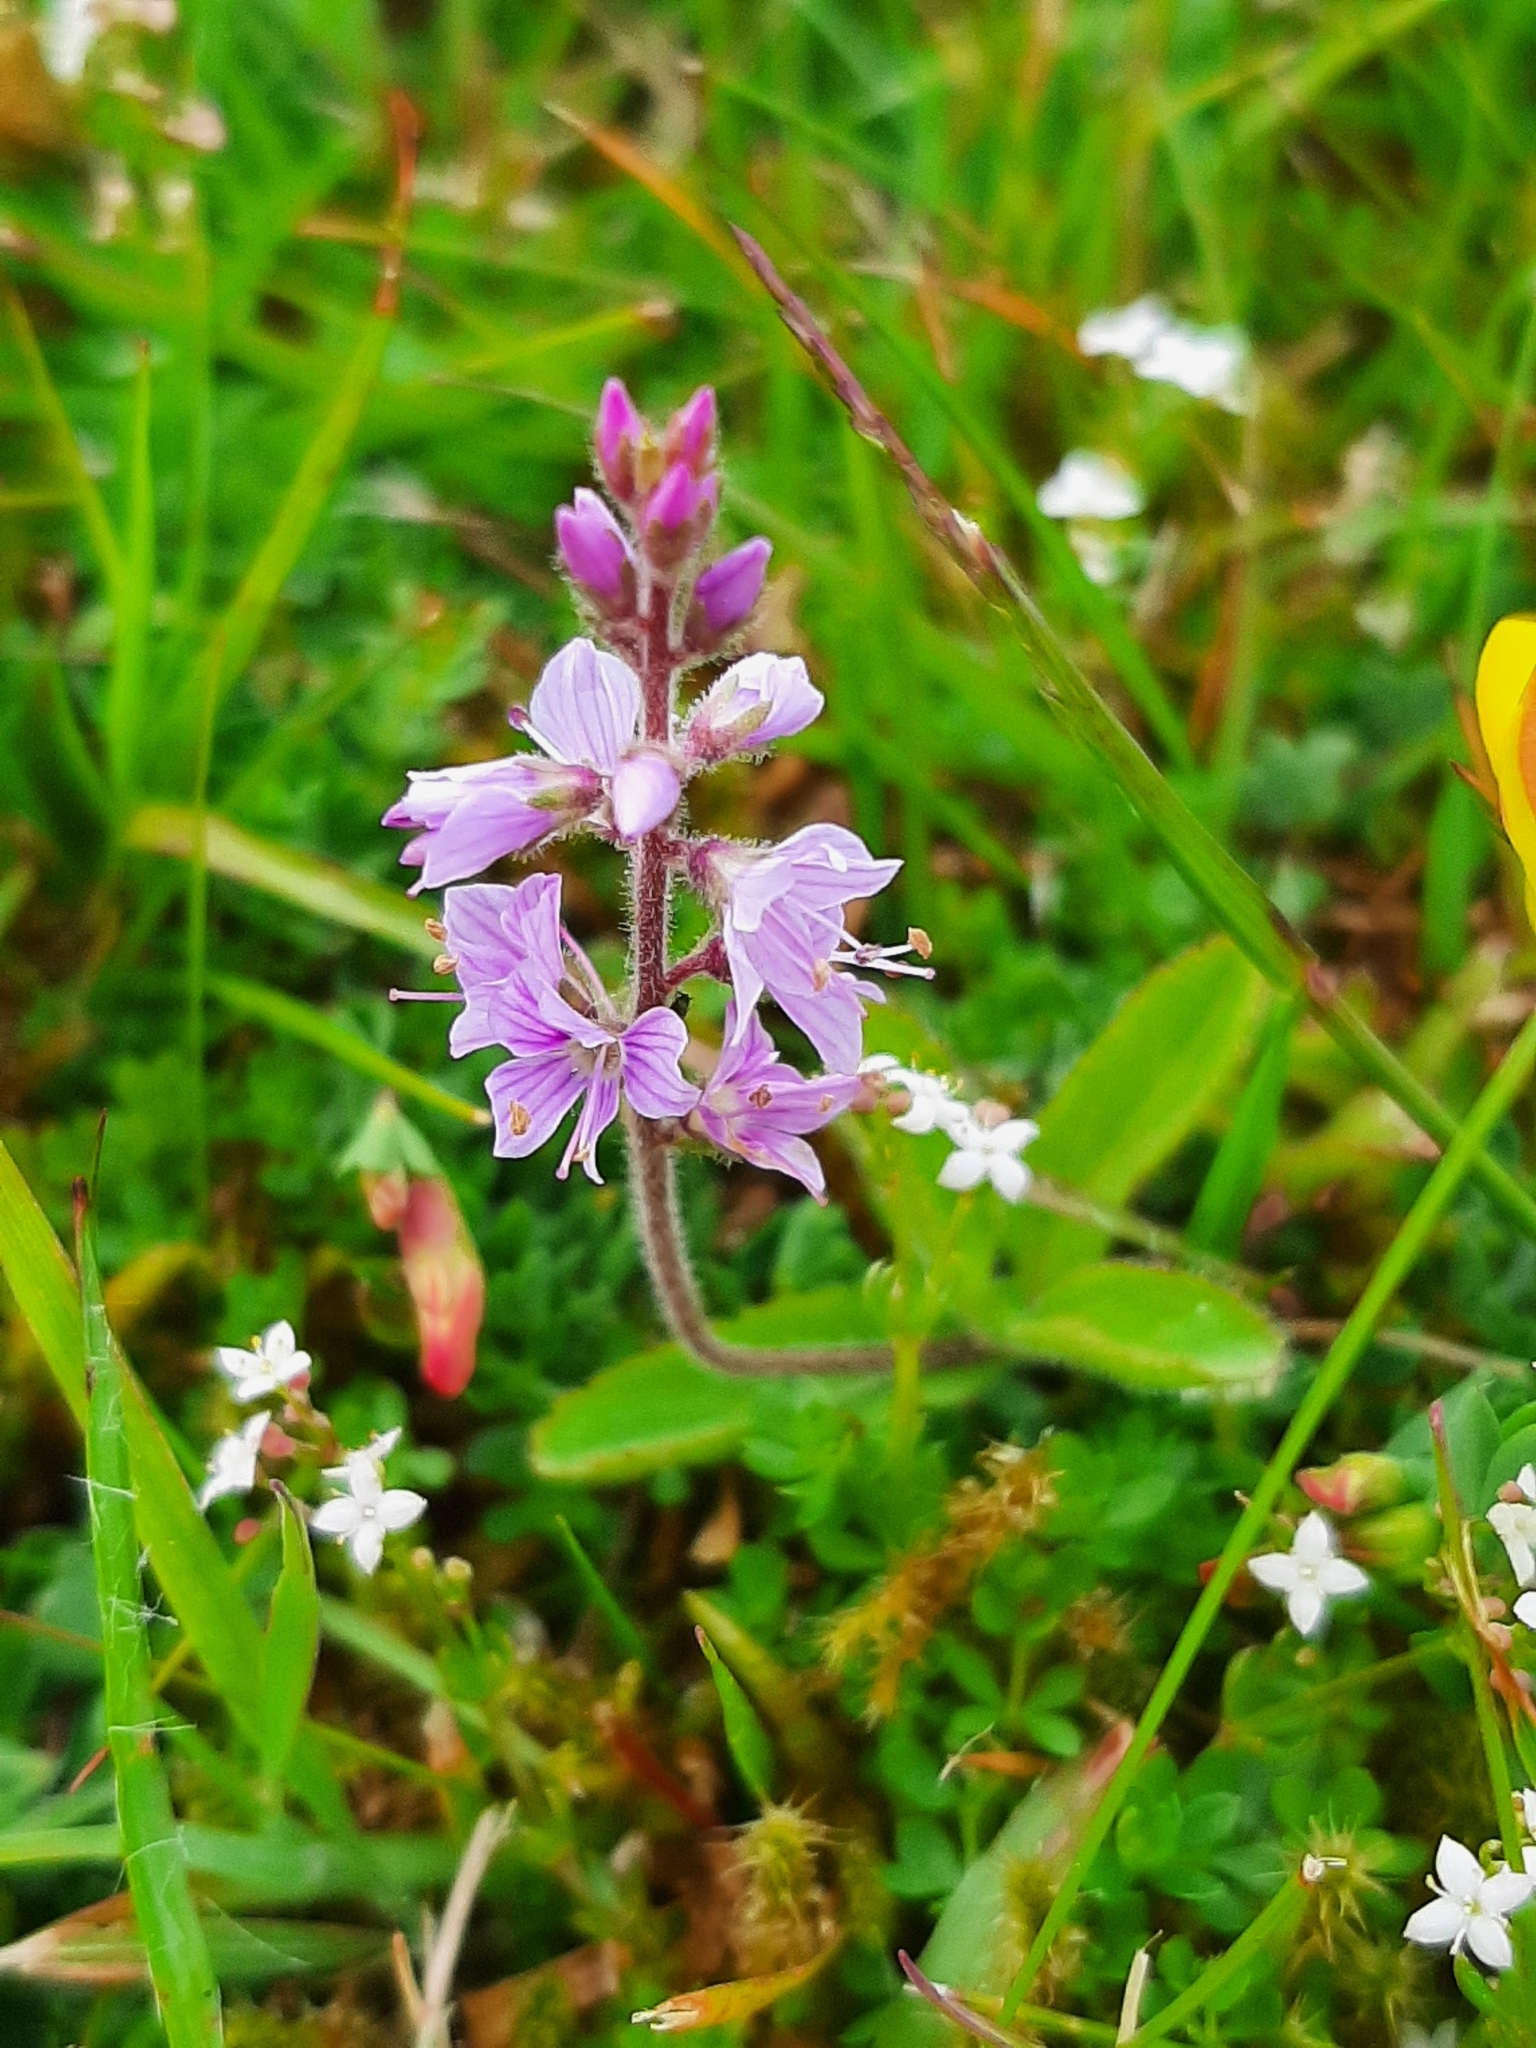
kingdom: Plantae
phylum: Tracheophyta
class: Magnoliopsida
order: Lamiales
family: Plantaginaceae
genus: Veronica
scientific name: Veronica officinalis
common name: Common speedwell
